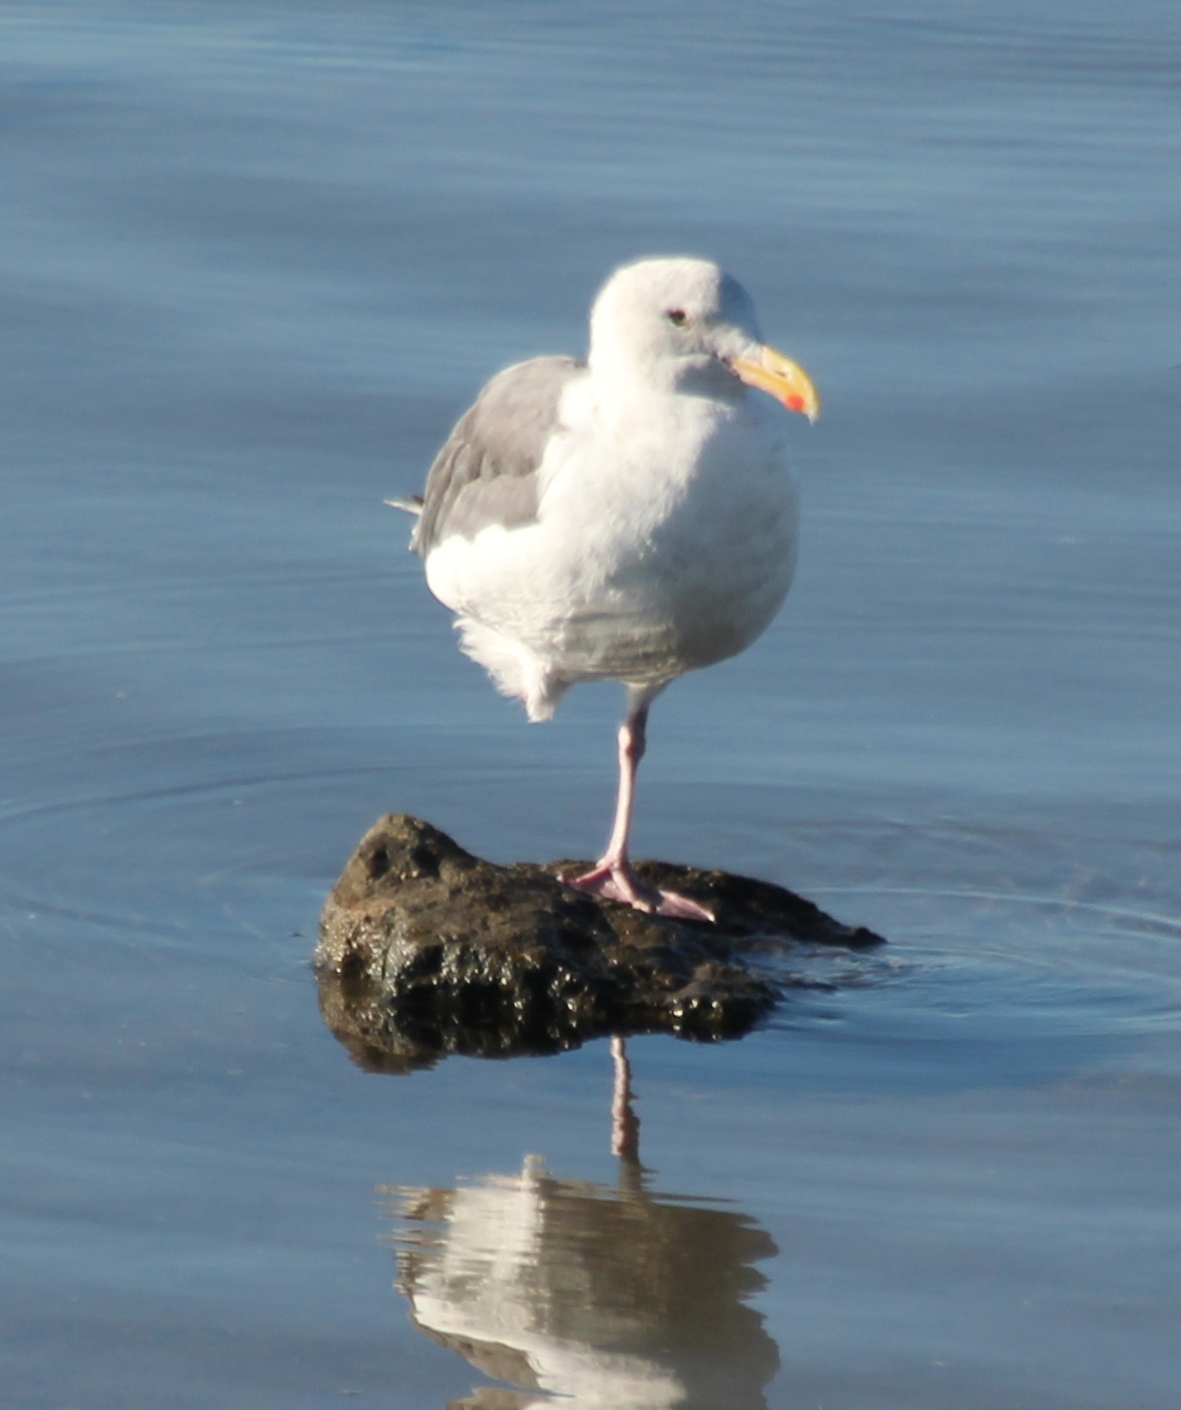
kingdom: Animalia
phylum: Chordata
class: Aves
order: Charadriiformes
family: Laridae
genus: Larus
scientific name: Larus occidentalis
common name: Western gull
